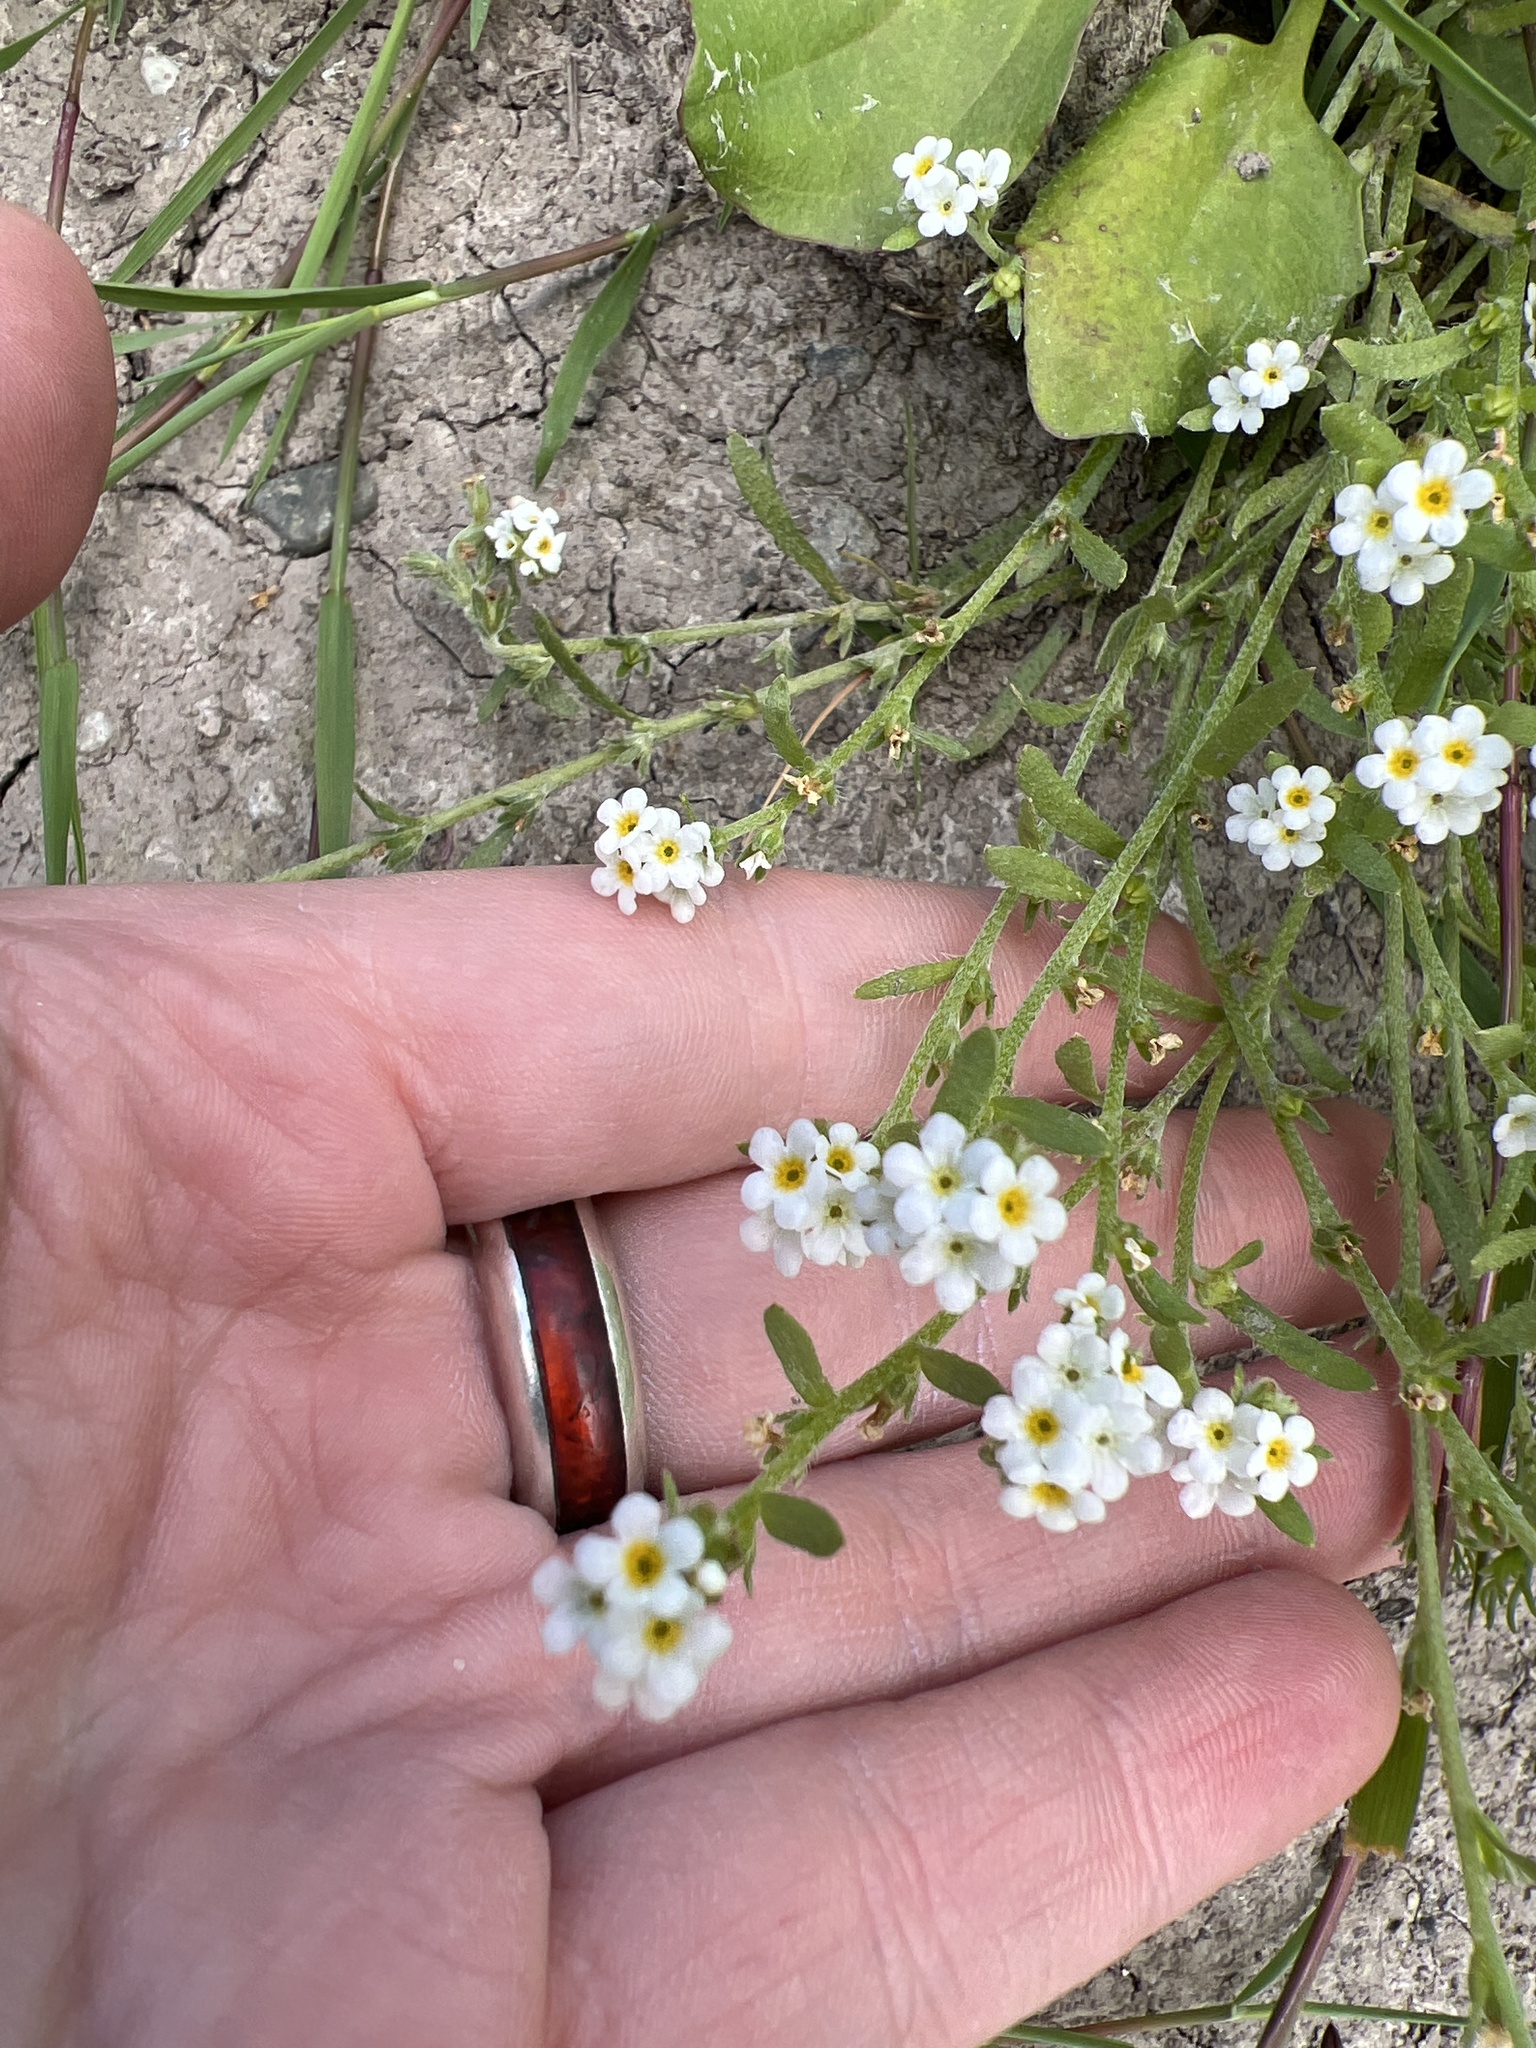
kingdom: Plantae
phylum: Tracheophyta
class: Magnoliopsida
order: Boraginales
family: Boraginaceae
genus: Plagiobothrys
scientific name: Plagiobothrys scouleri
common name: White forget-me-not
